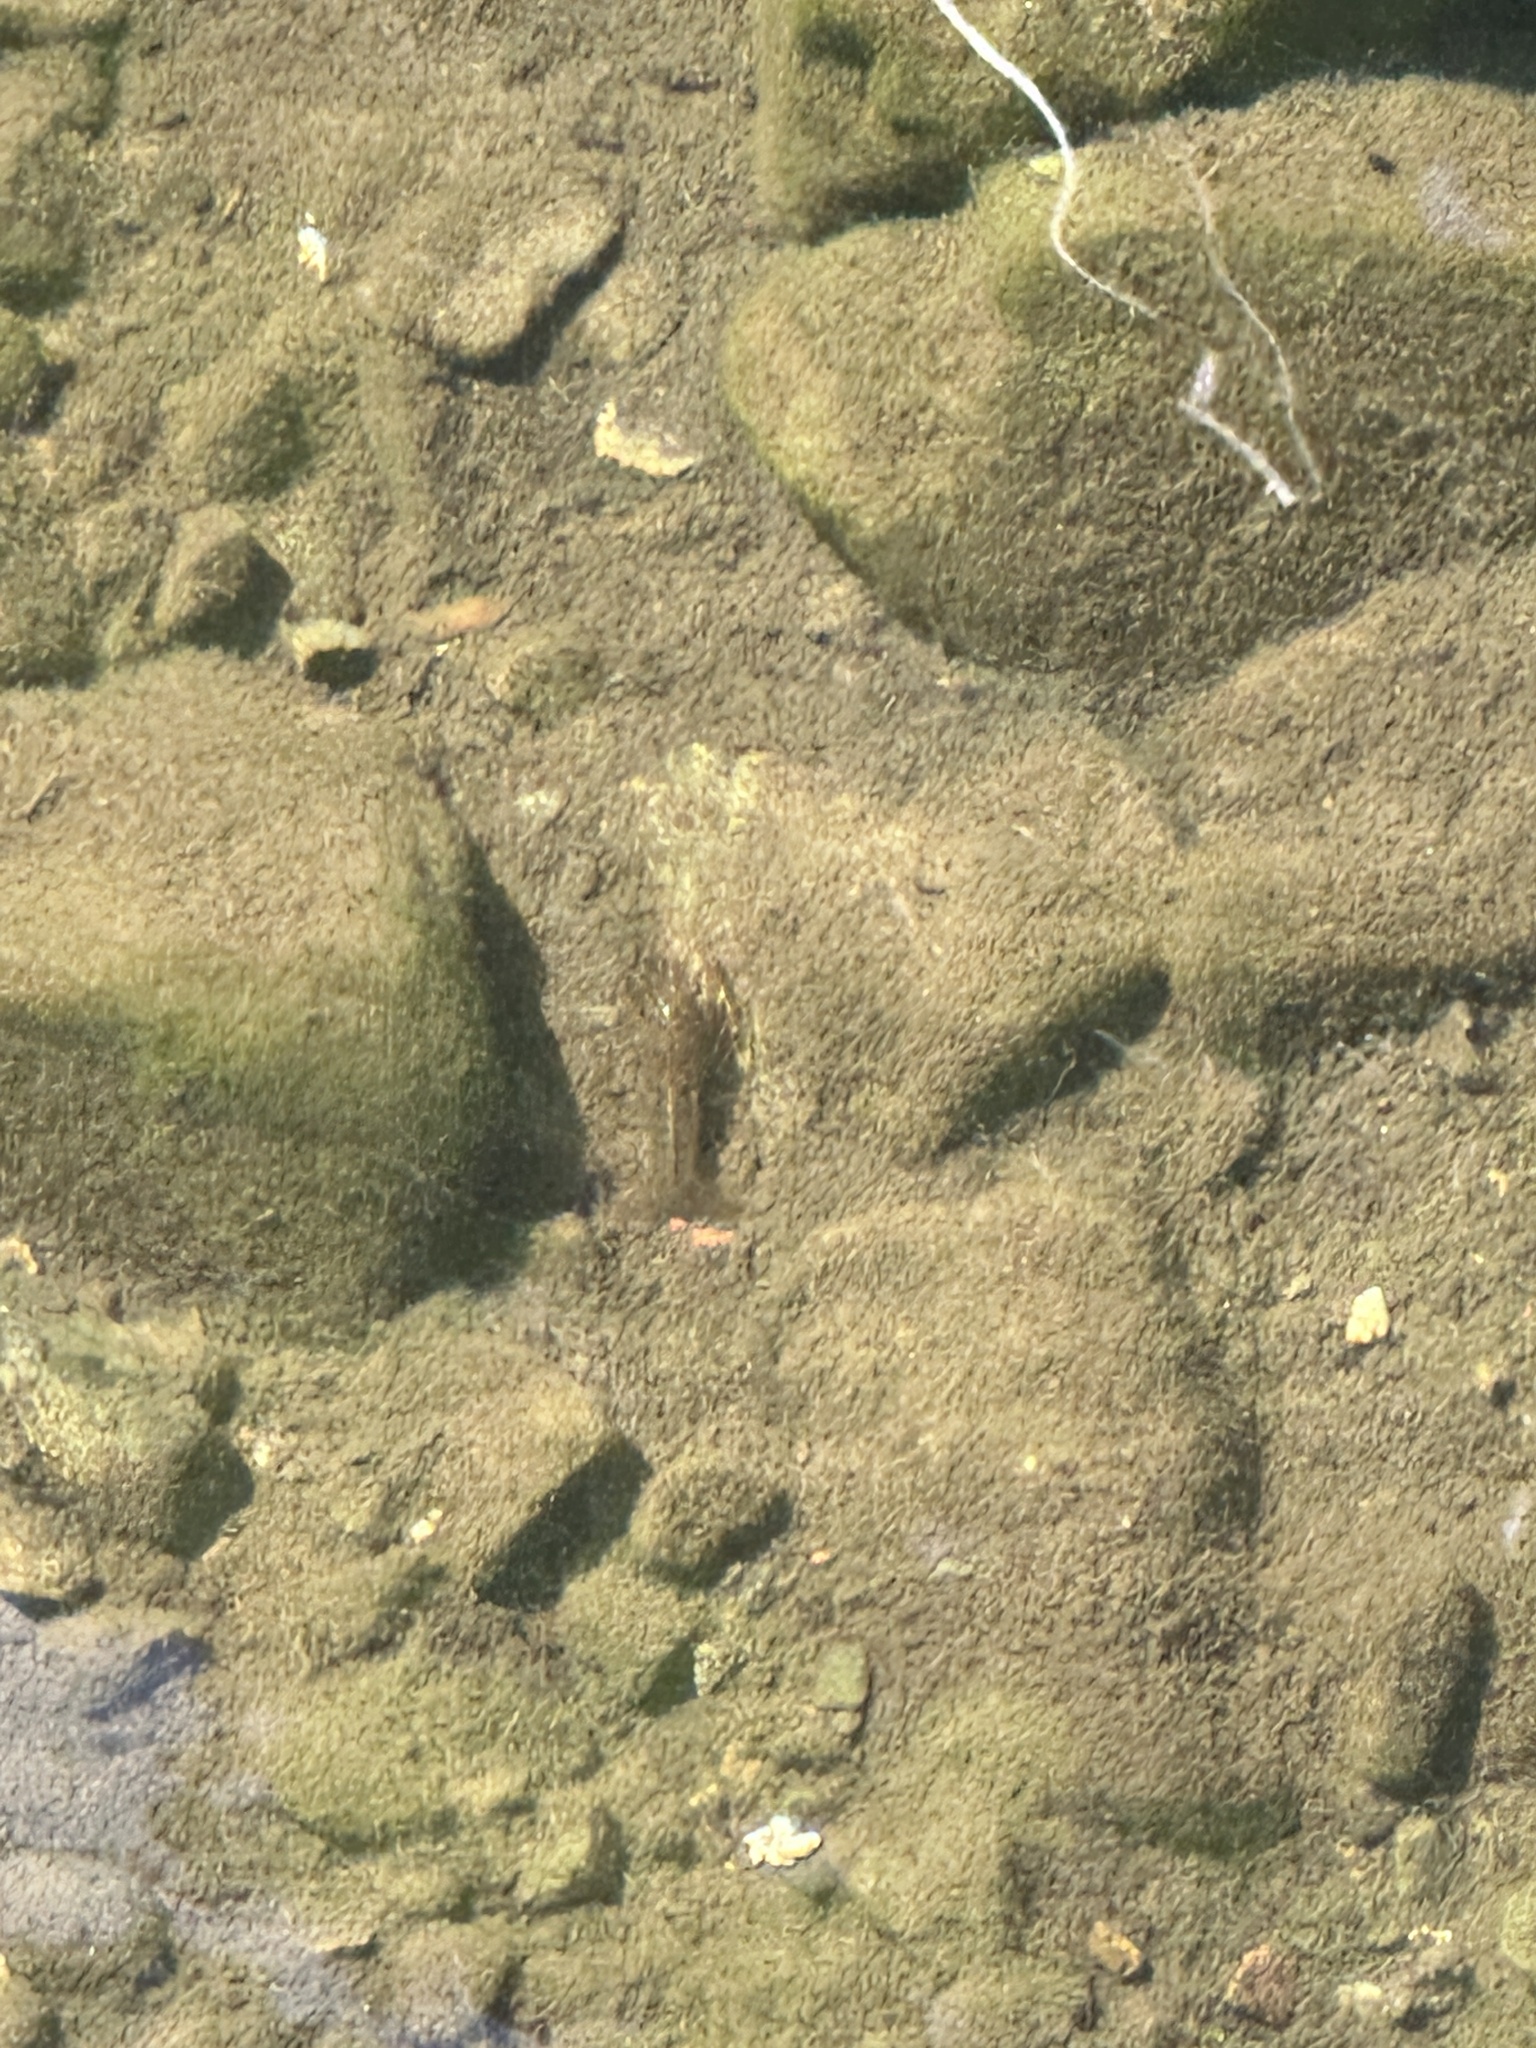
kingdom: Animalia
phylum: Arthropoda
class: Malacostraca
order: Decapoda
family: Cambaridae
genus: Procambarus
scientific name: Procambarus clarkii
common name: Red swamp crayfish
